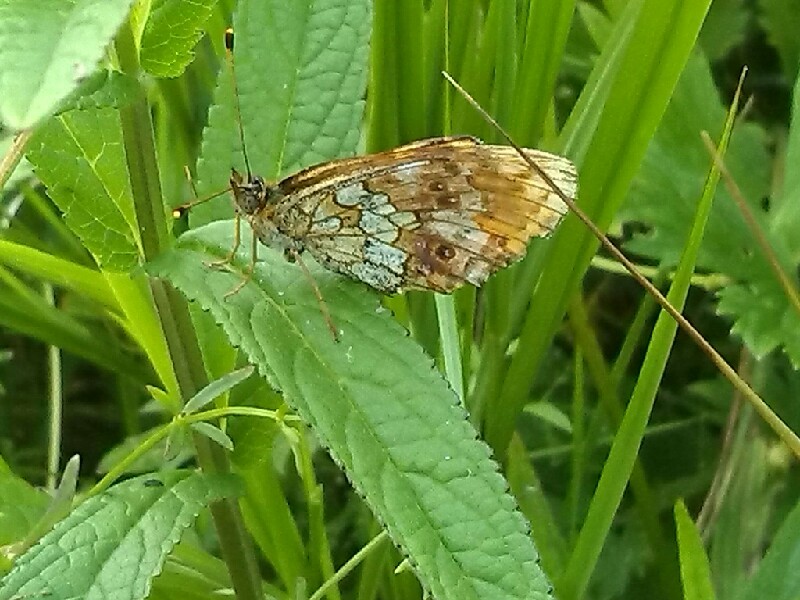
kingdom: Animalia
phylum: Arthropoda
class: Insecta
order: Lepidoptera
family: Nymphalidae
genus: Brenthis
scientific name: Brenthis ino
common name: Lesser marbled fritillary
